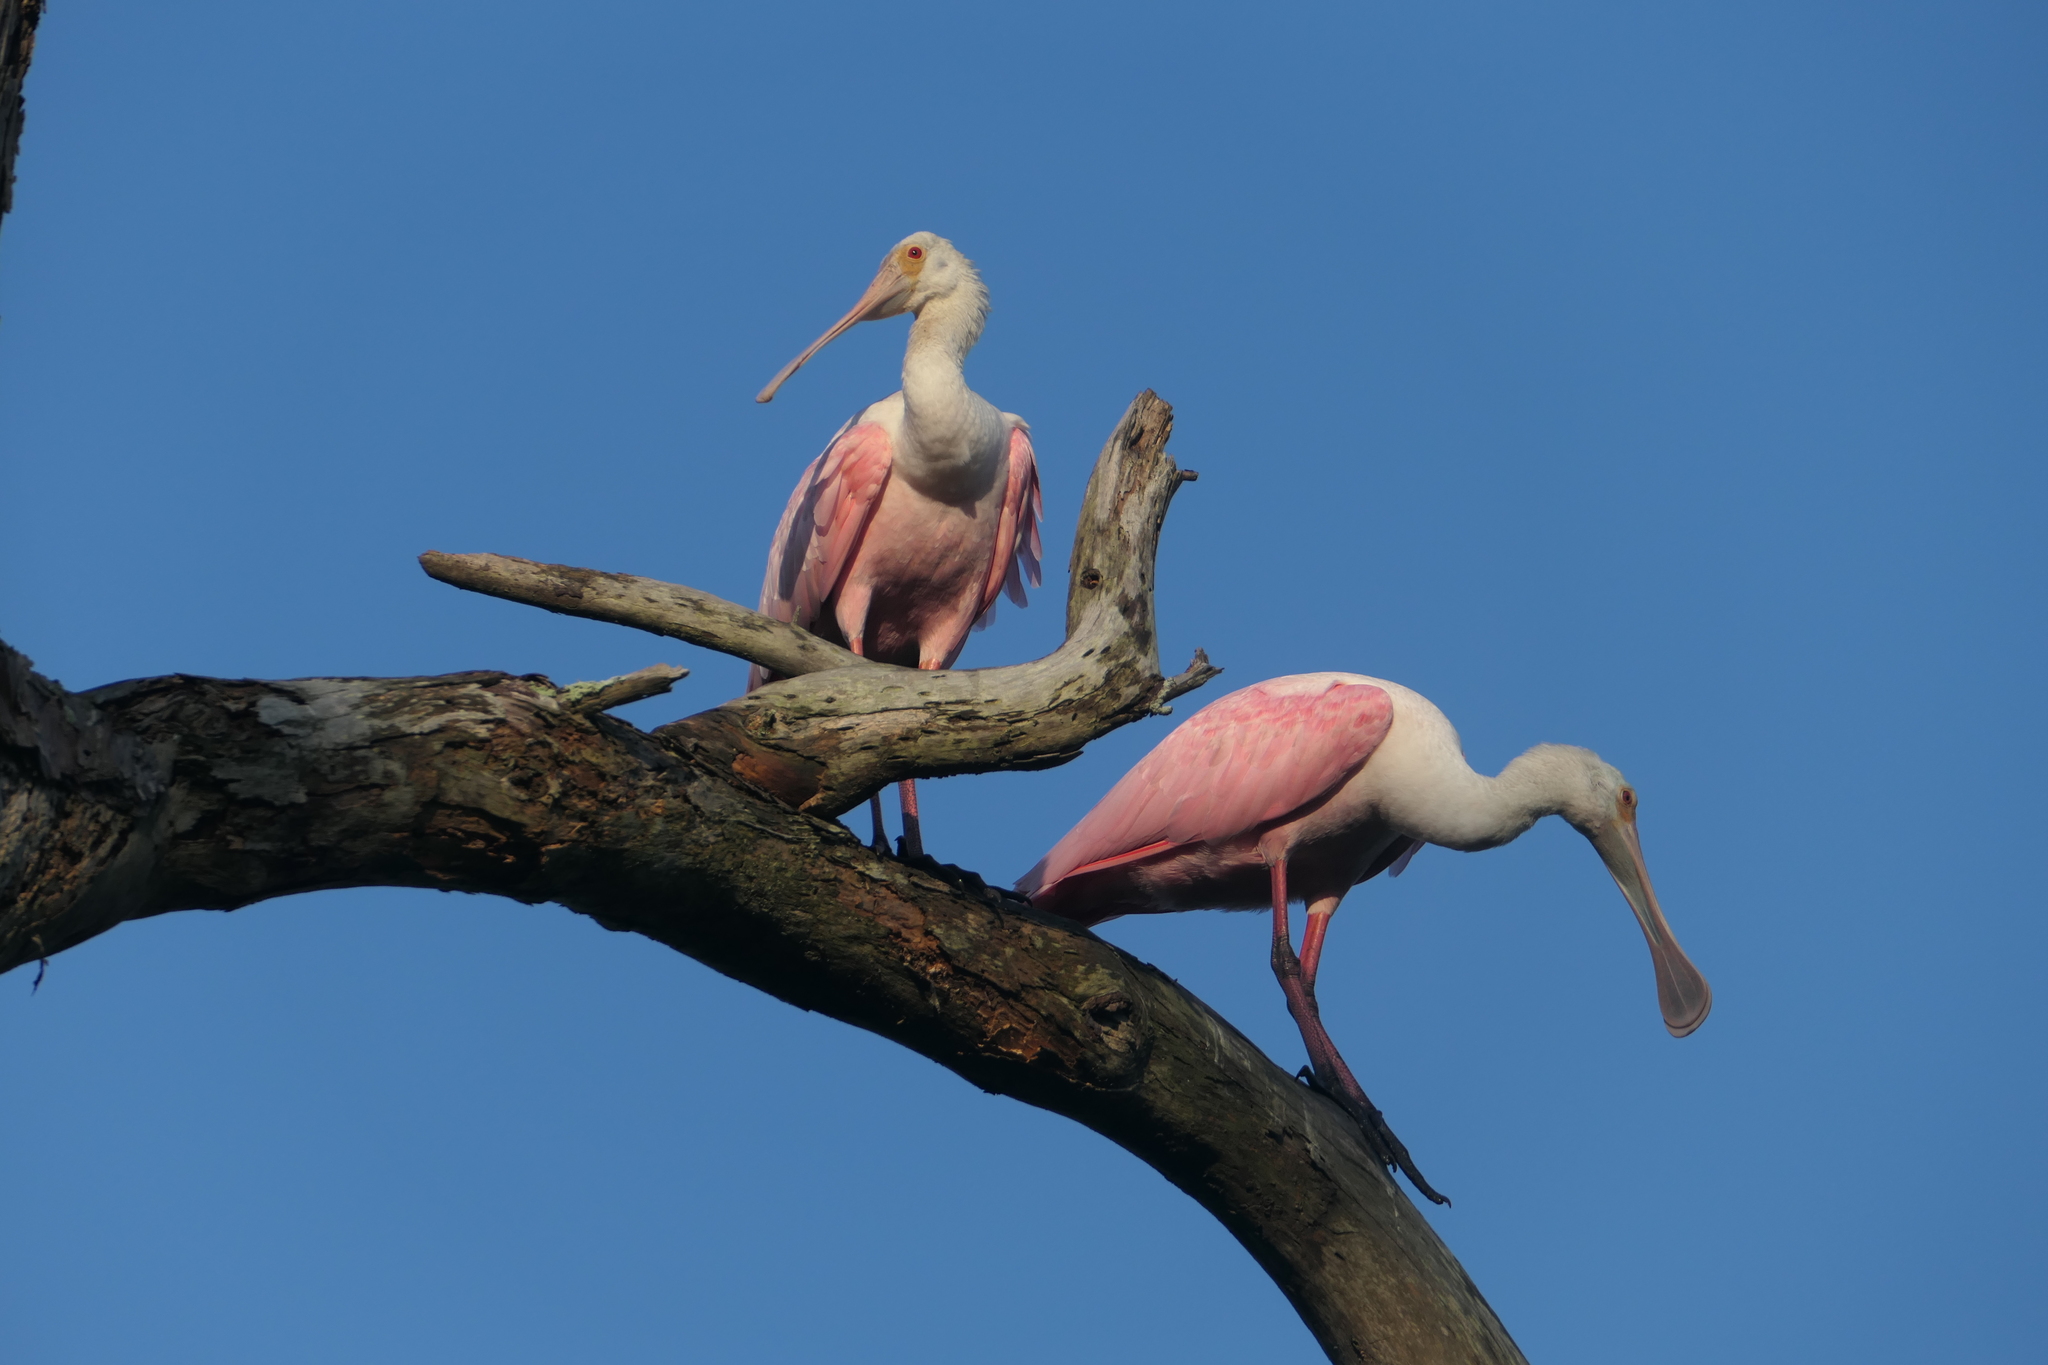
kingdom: Animalia
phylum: Chordata
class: Aves
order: Pelecaniformes
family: Threskiornithidae
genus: Platalea
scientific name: Platalea ajaja
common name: Roseate spoonbill
